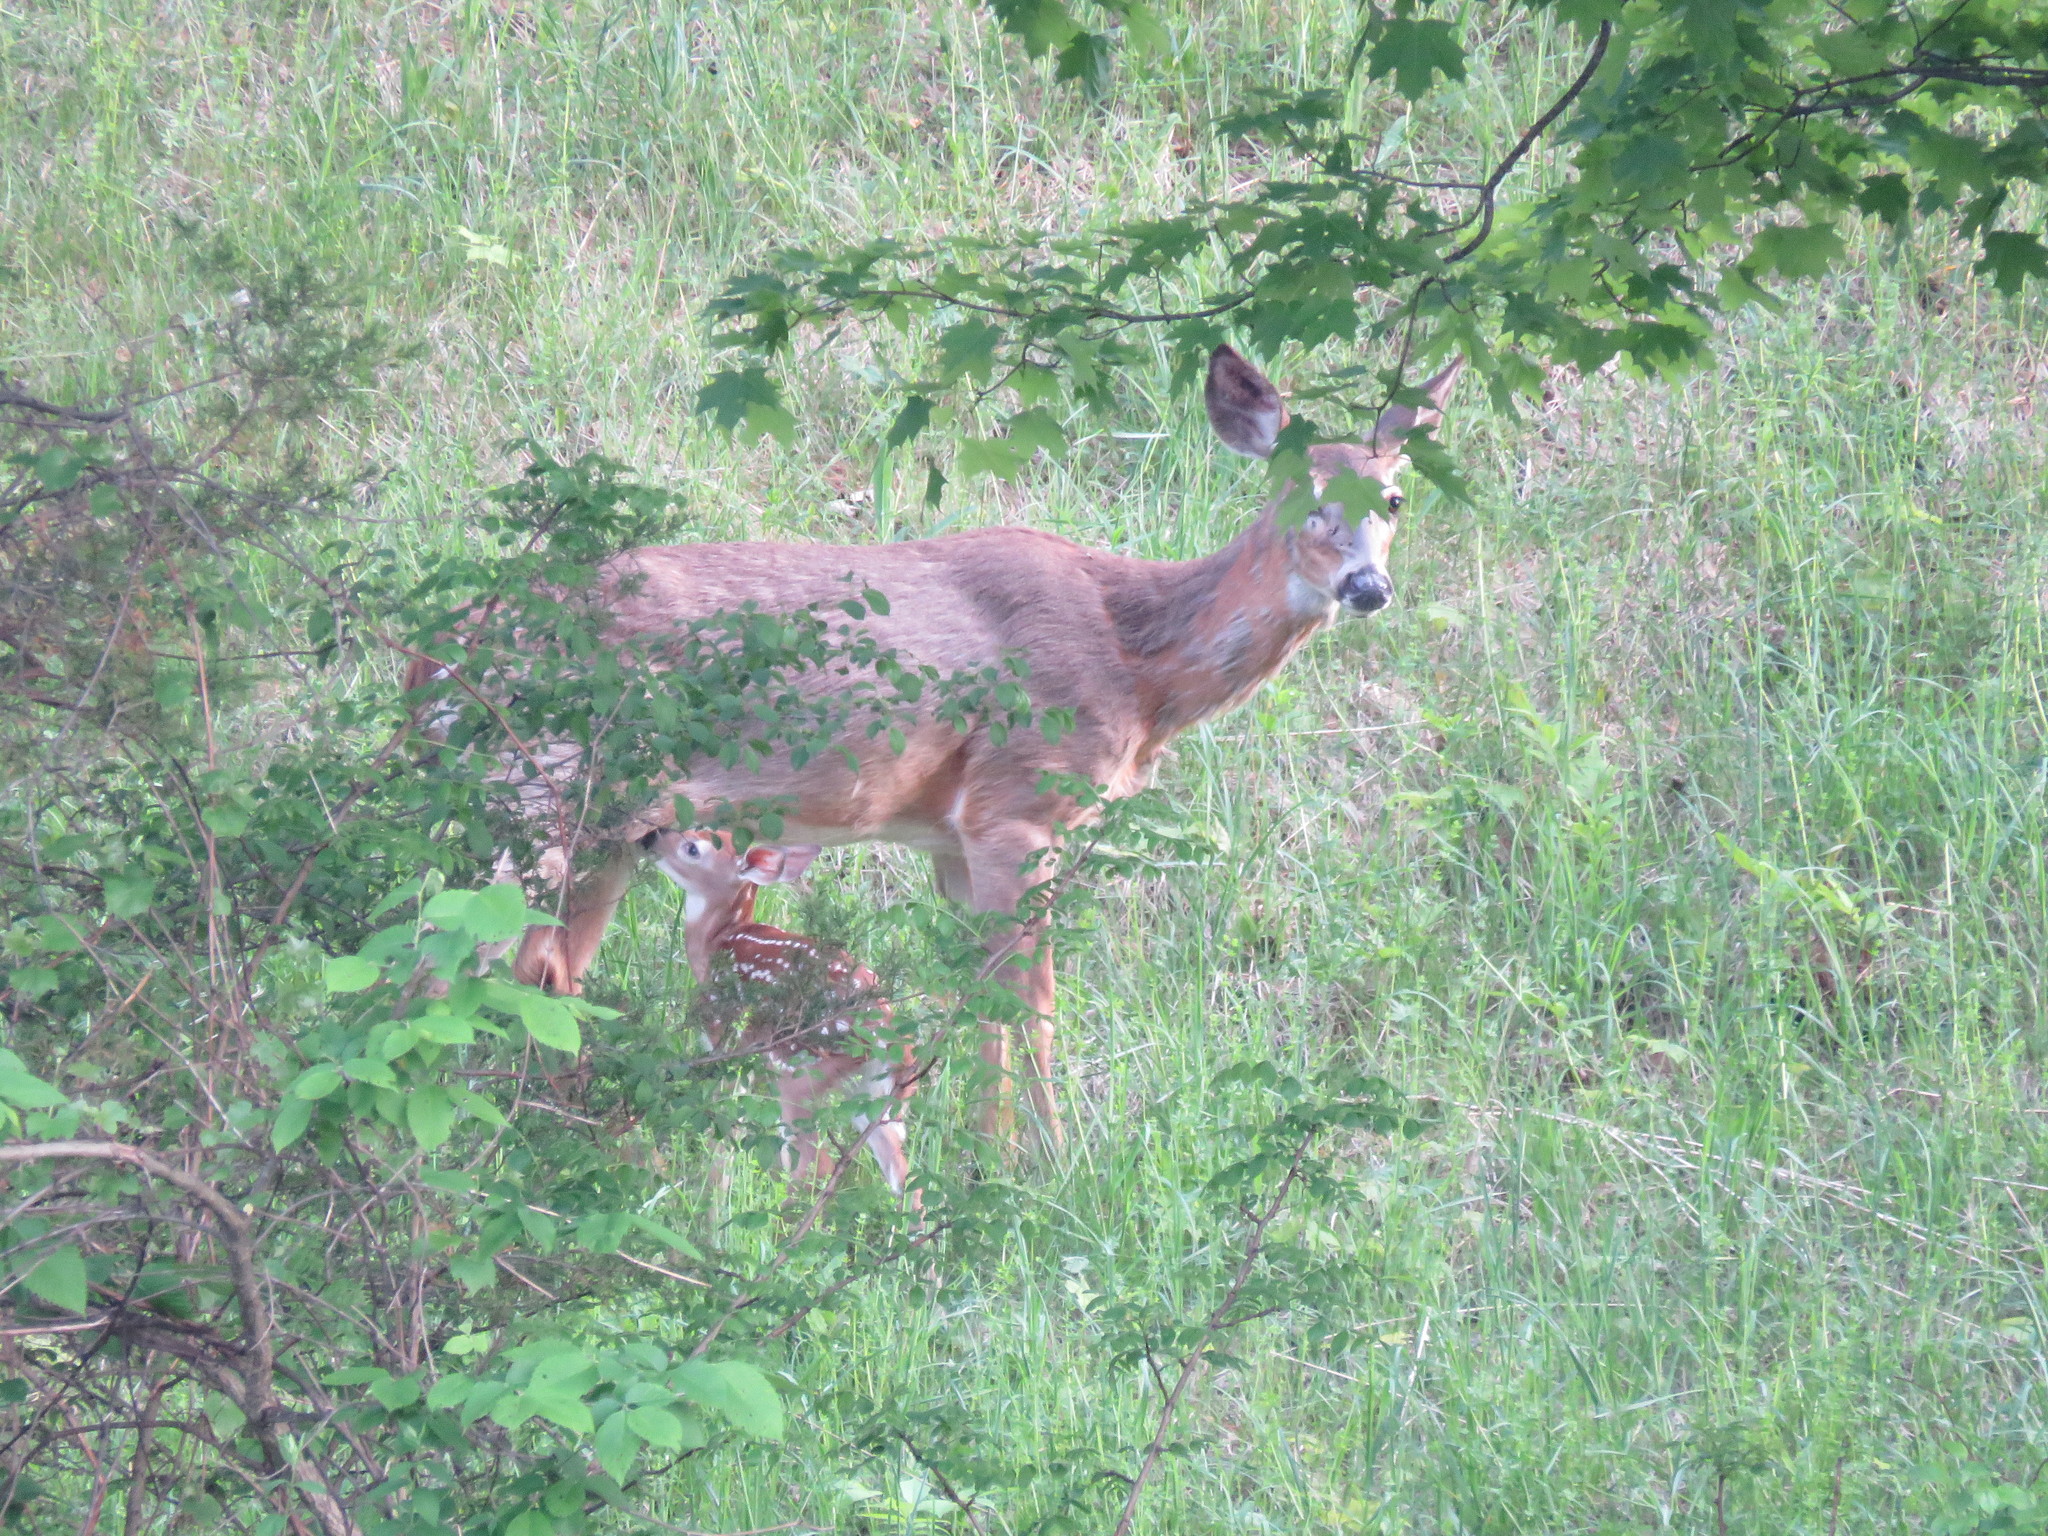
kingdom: Animalia
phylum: Chordata
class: Mammalia
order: Artiodactyla
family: Cervidae
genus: Odocoileus
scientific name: Odocoileus virginianus
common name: White-tailed deer
